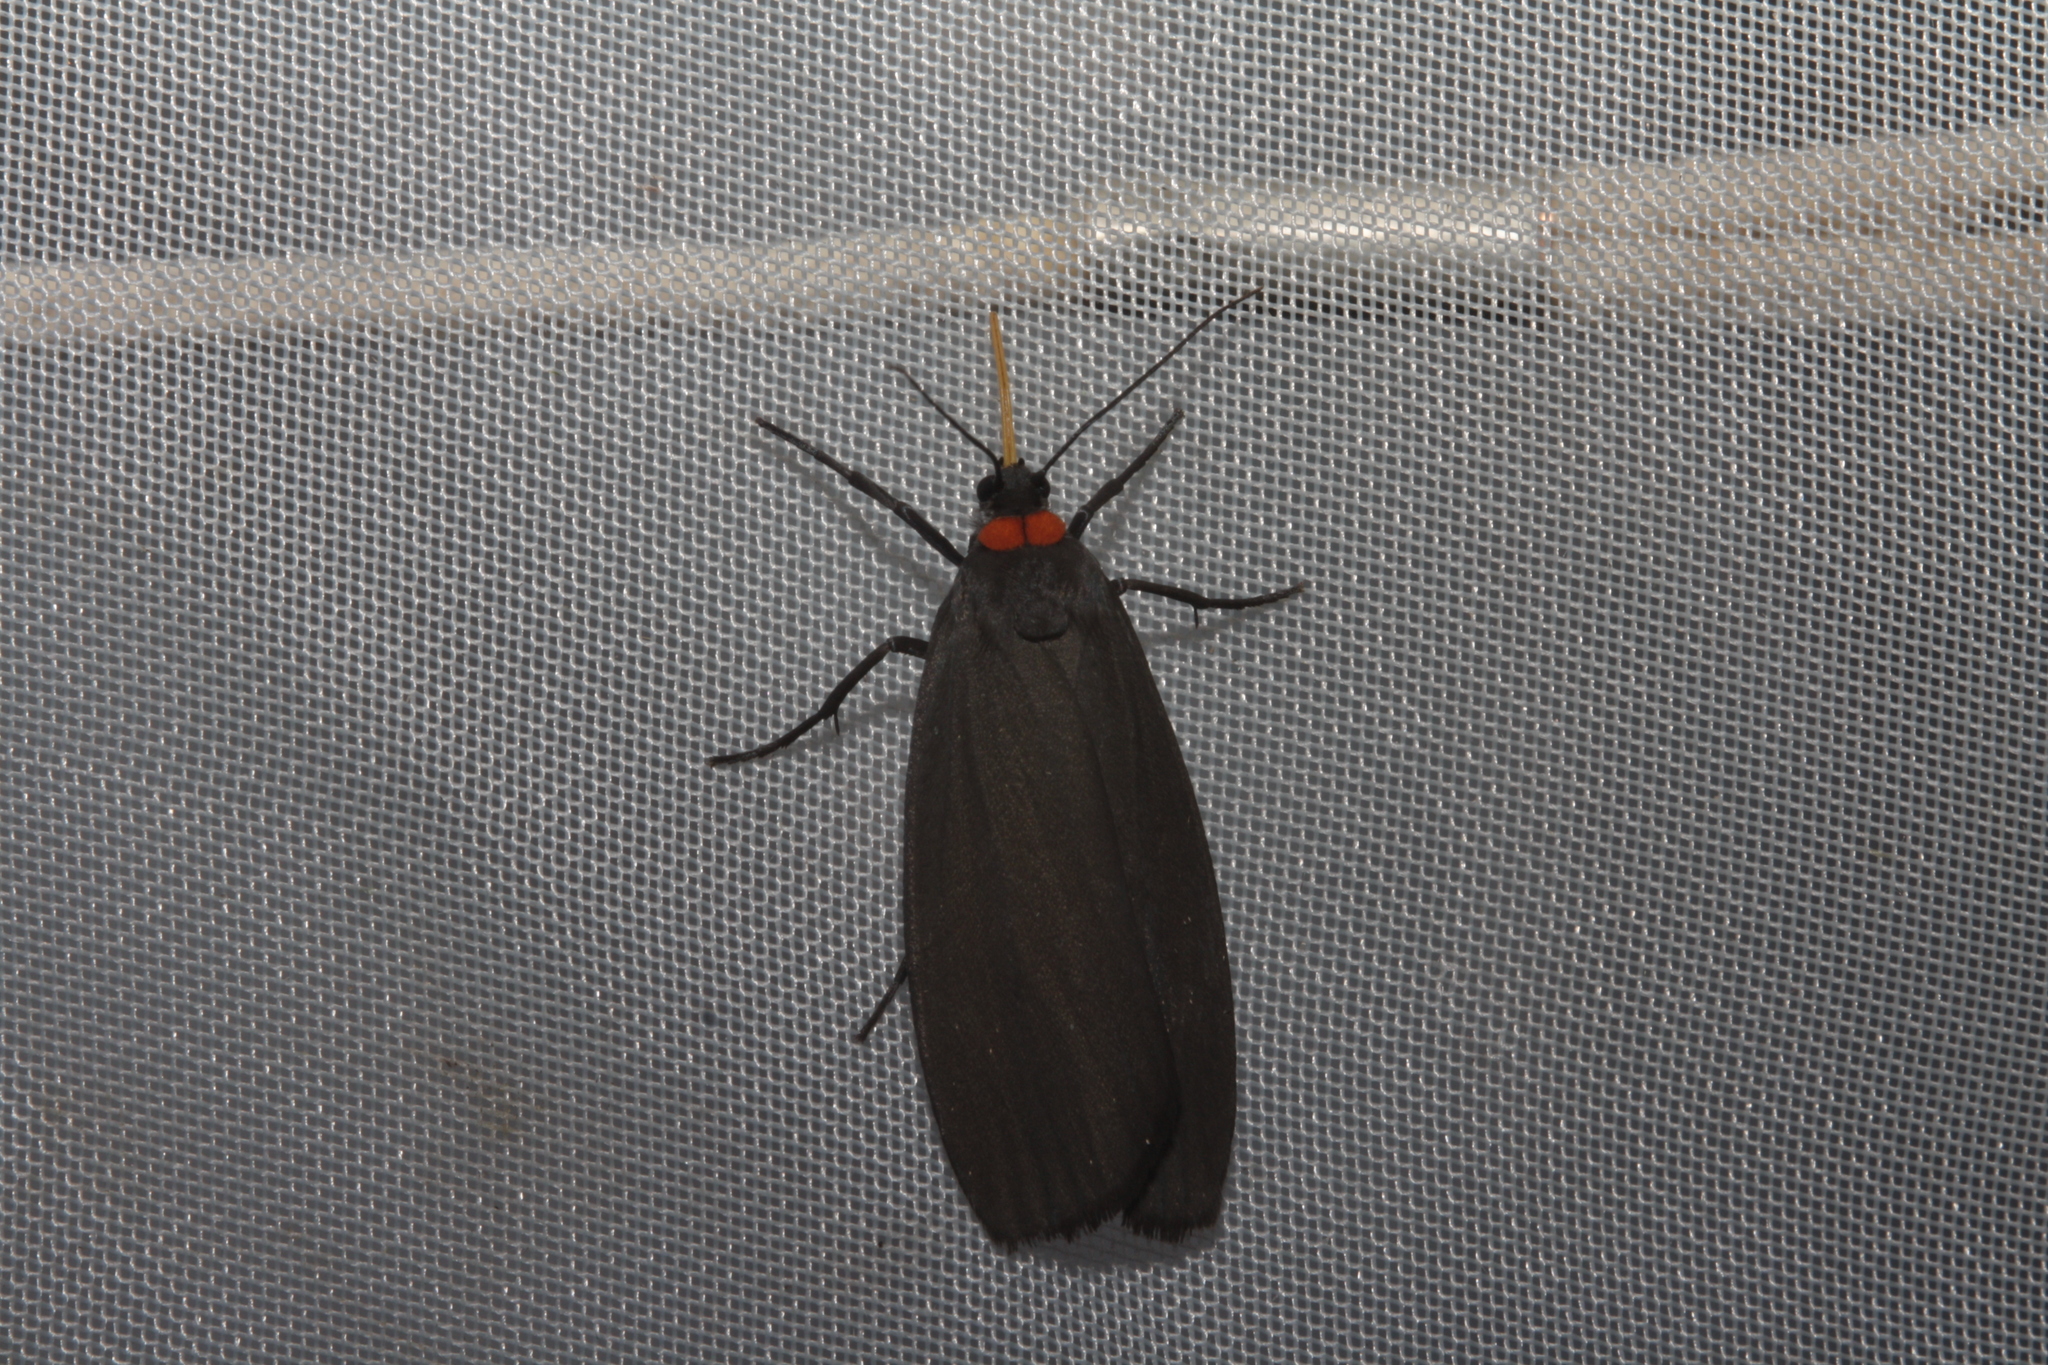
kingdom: Animalia
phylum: Arthropoda
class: Insecta
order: Lepidoptera
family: Erebidae
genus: Atolmis
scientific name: Atolmis rubricollis
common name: Red-necked footman
